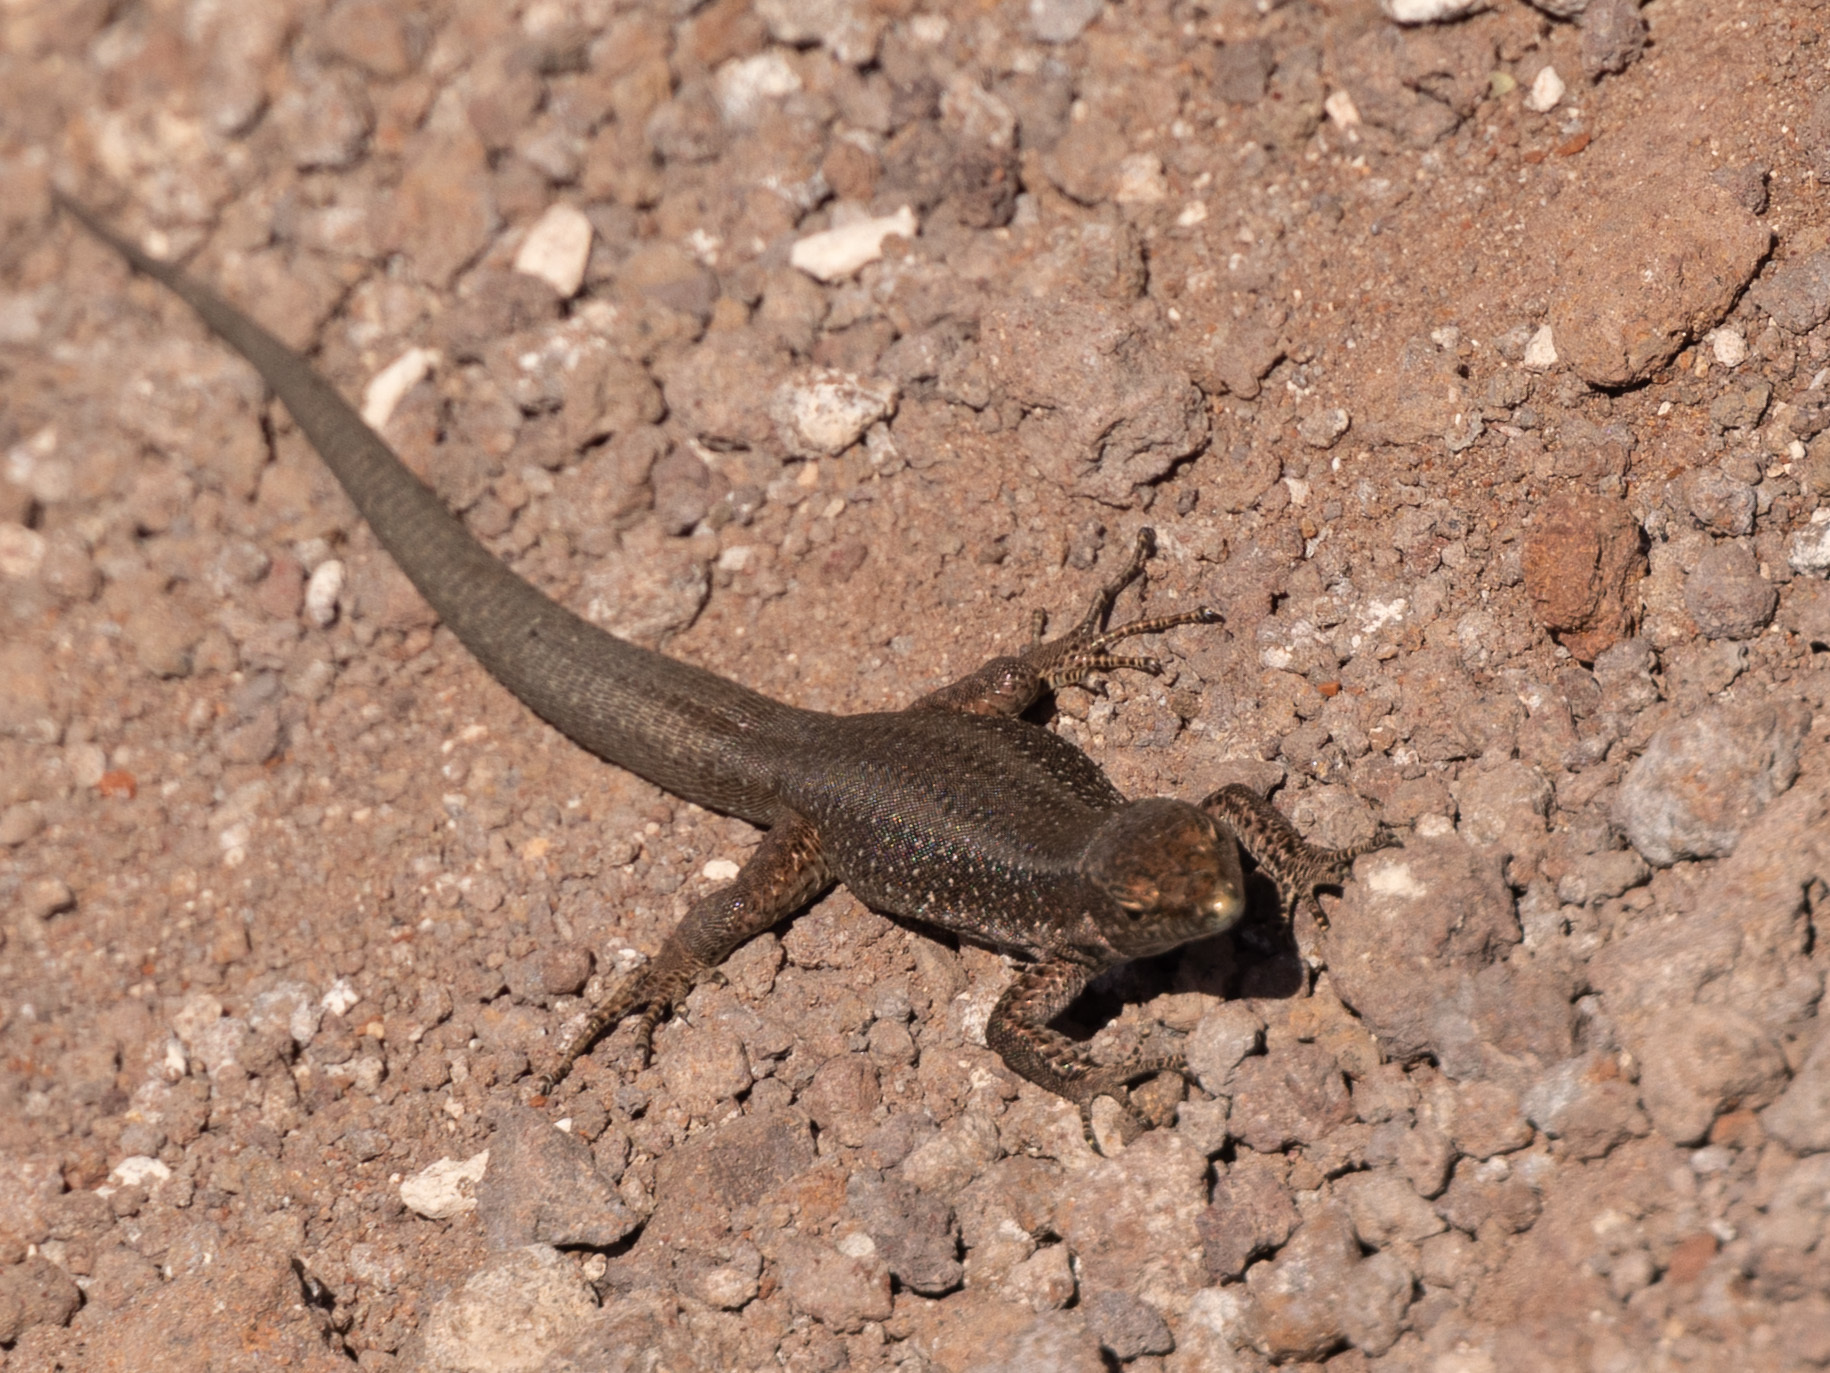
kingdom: Animalia
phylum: Chordata
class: Squamata
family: Lacertidae
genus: Teira
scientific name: Teira dugesii
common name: Madeira lizard
